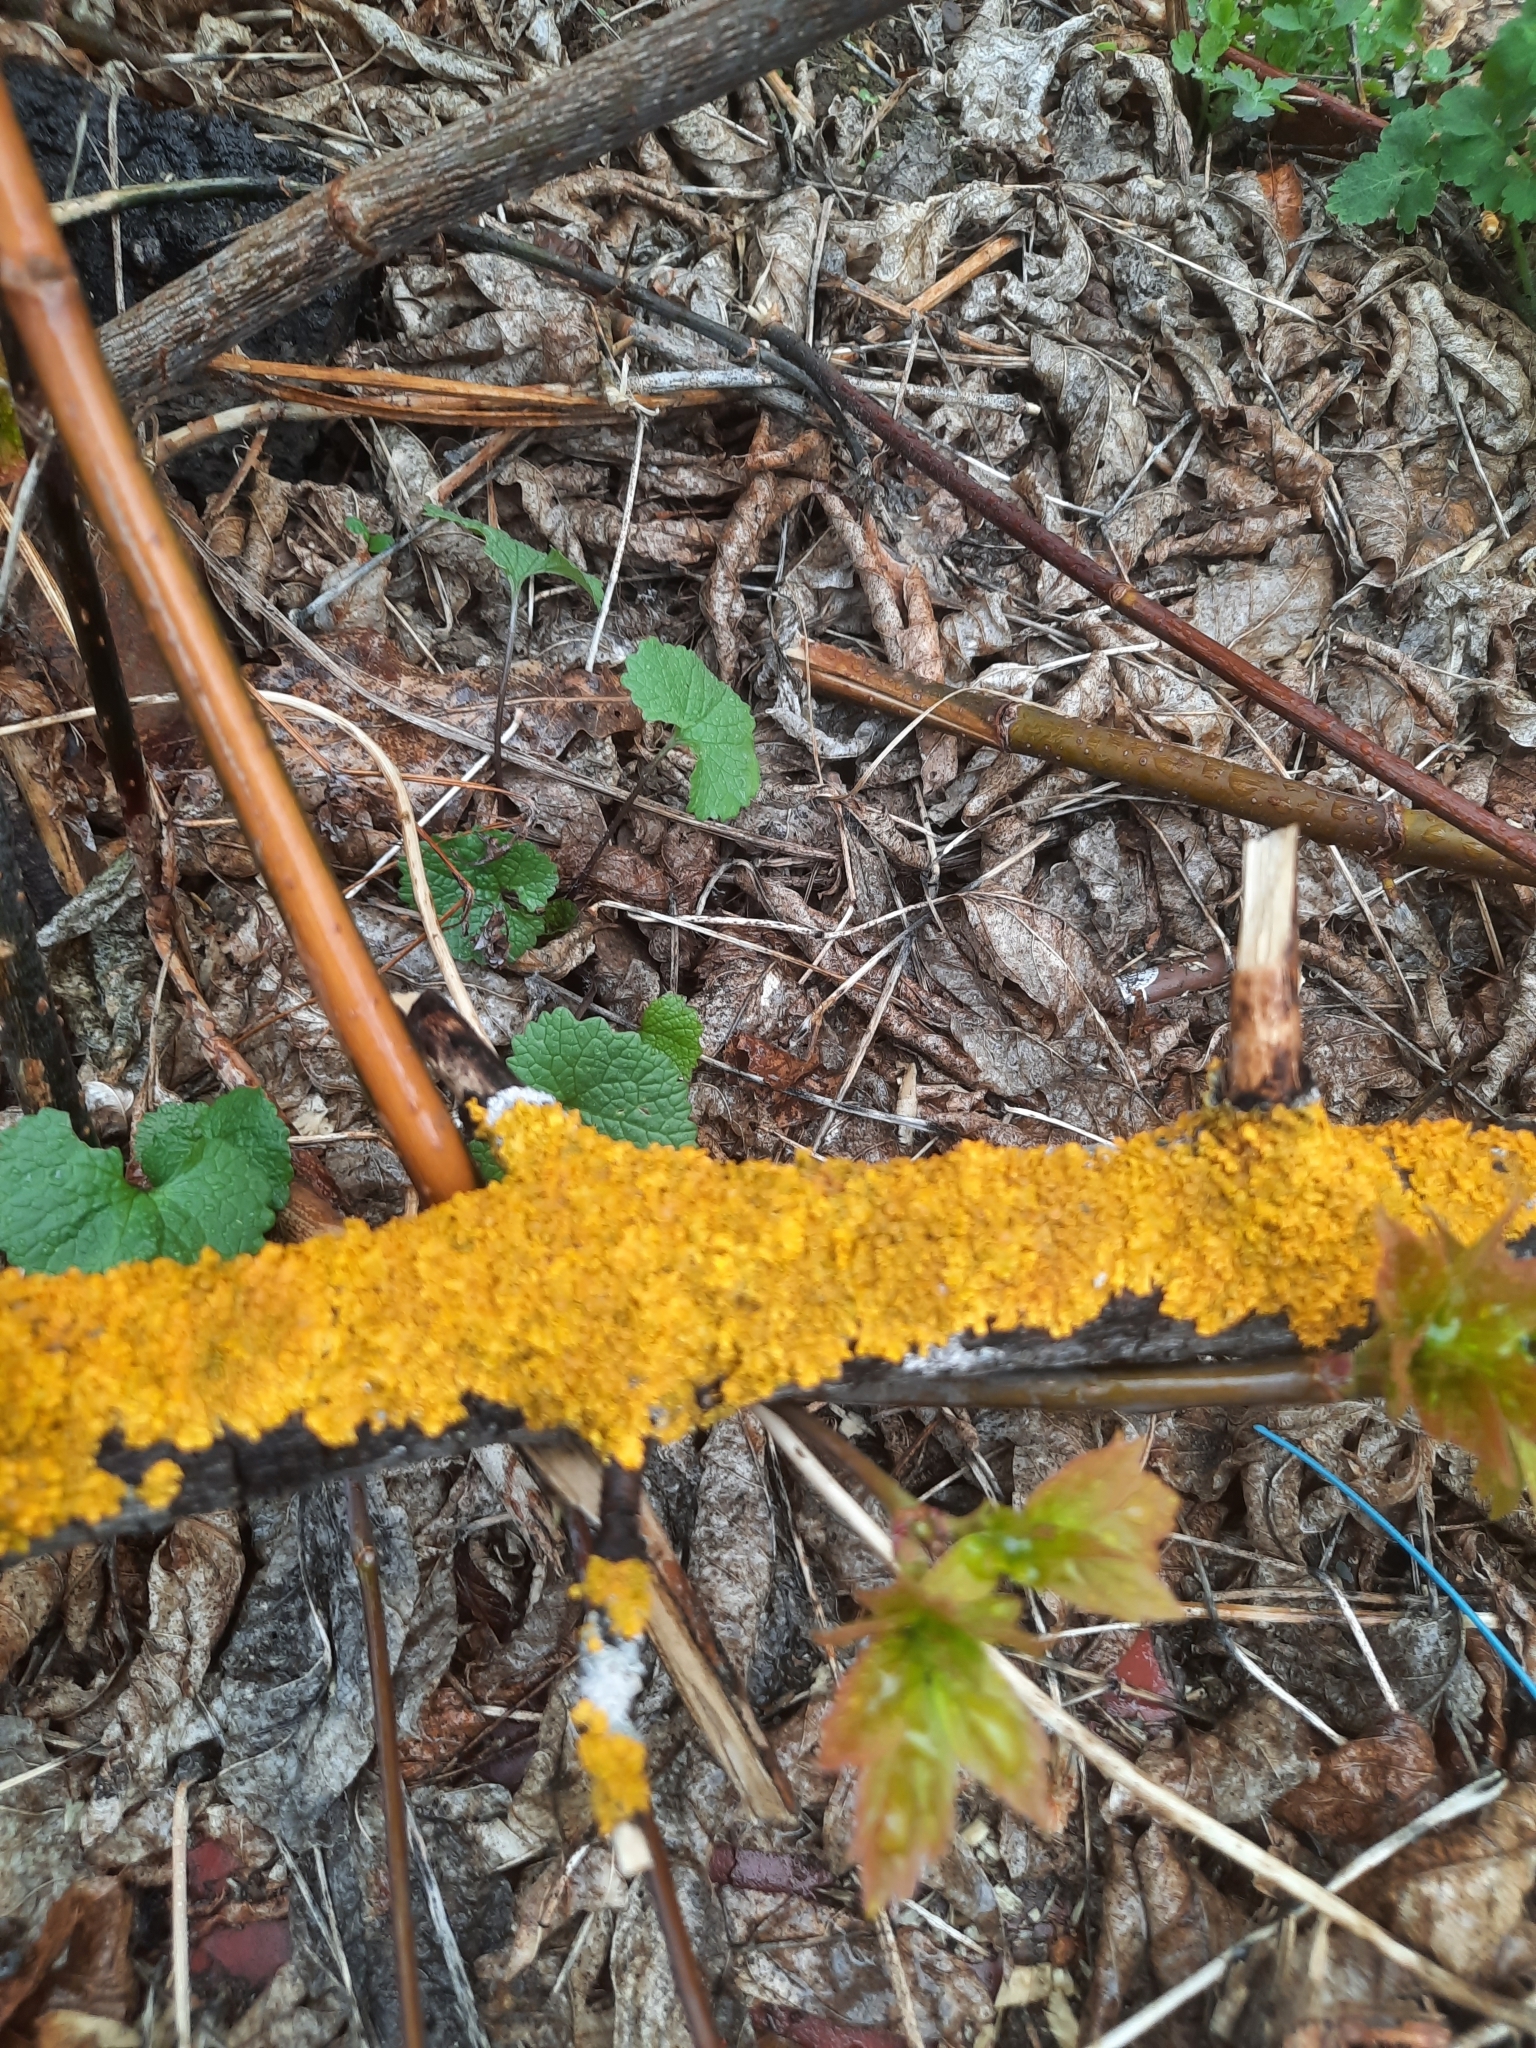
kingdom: Fungi
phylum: Ascomycota
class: Lecanoromycetes
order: Teloschistales
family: Teloschistaceae
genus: Xanthoria
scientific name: Xanthoria parietina
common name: Common orange lichen
